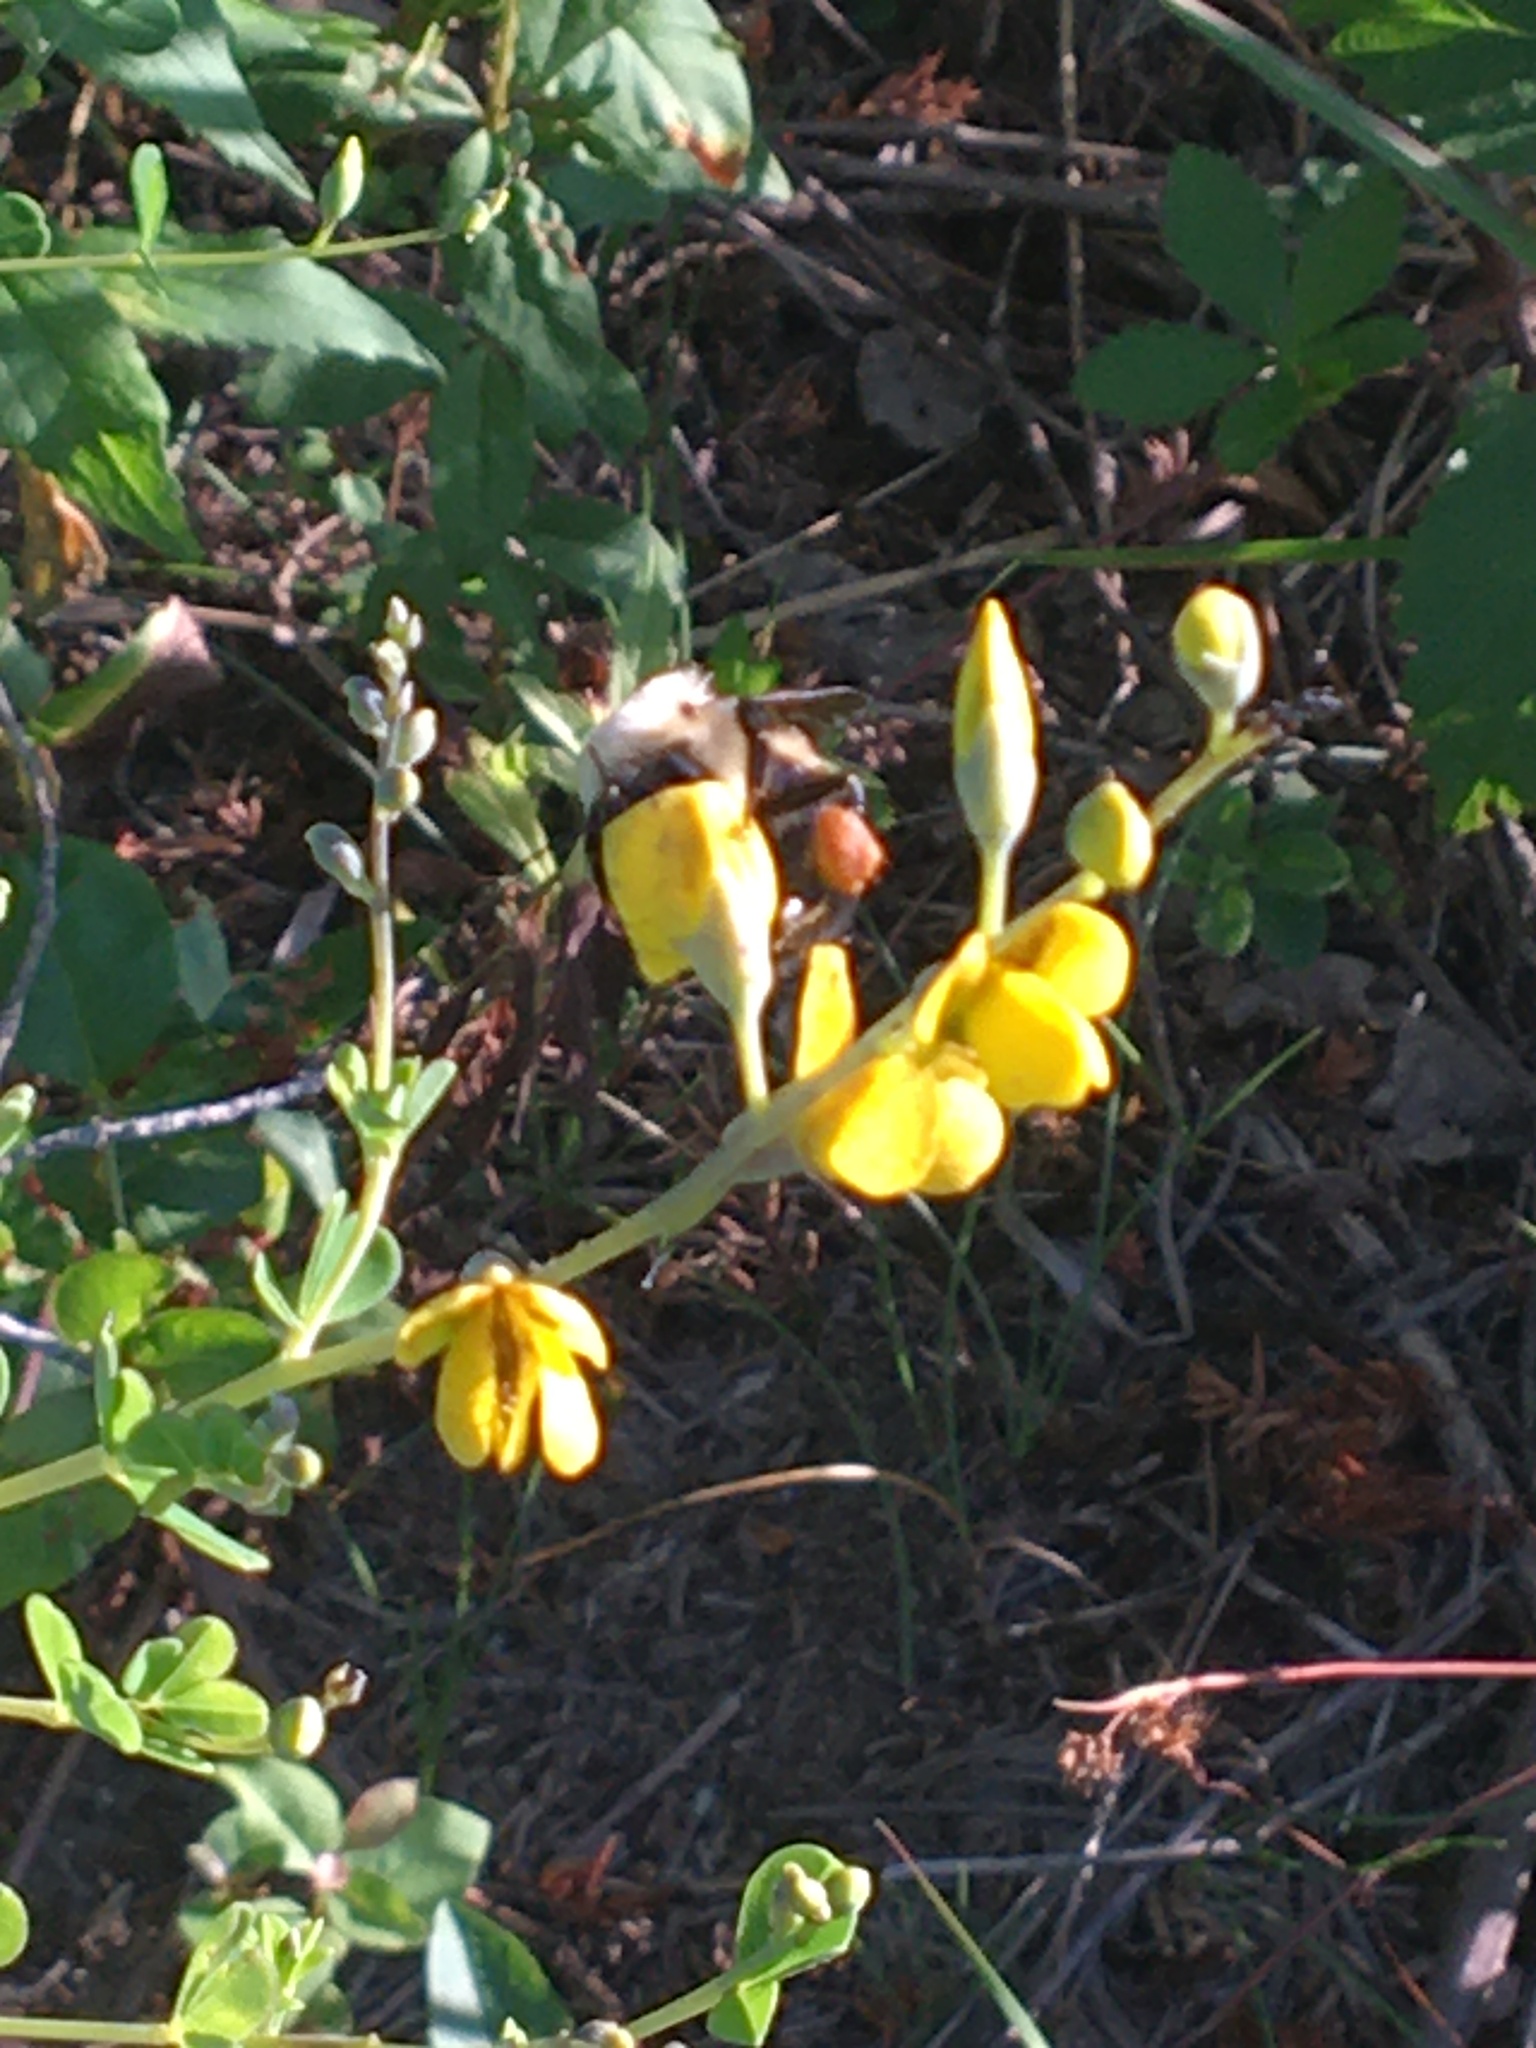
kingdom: Animalia
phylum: Arthropoda
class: Insecta
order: Hymenoptera
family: Apidae
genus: Bombus
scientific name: Bombus griseocollis
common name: Brown-belted bumble bee
